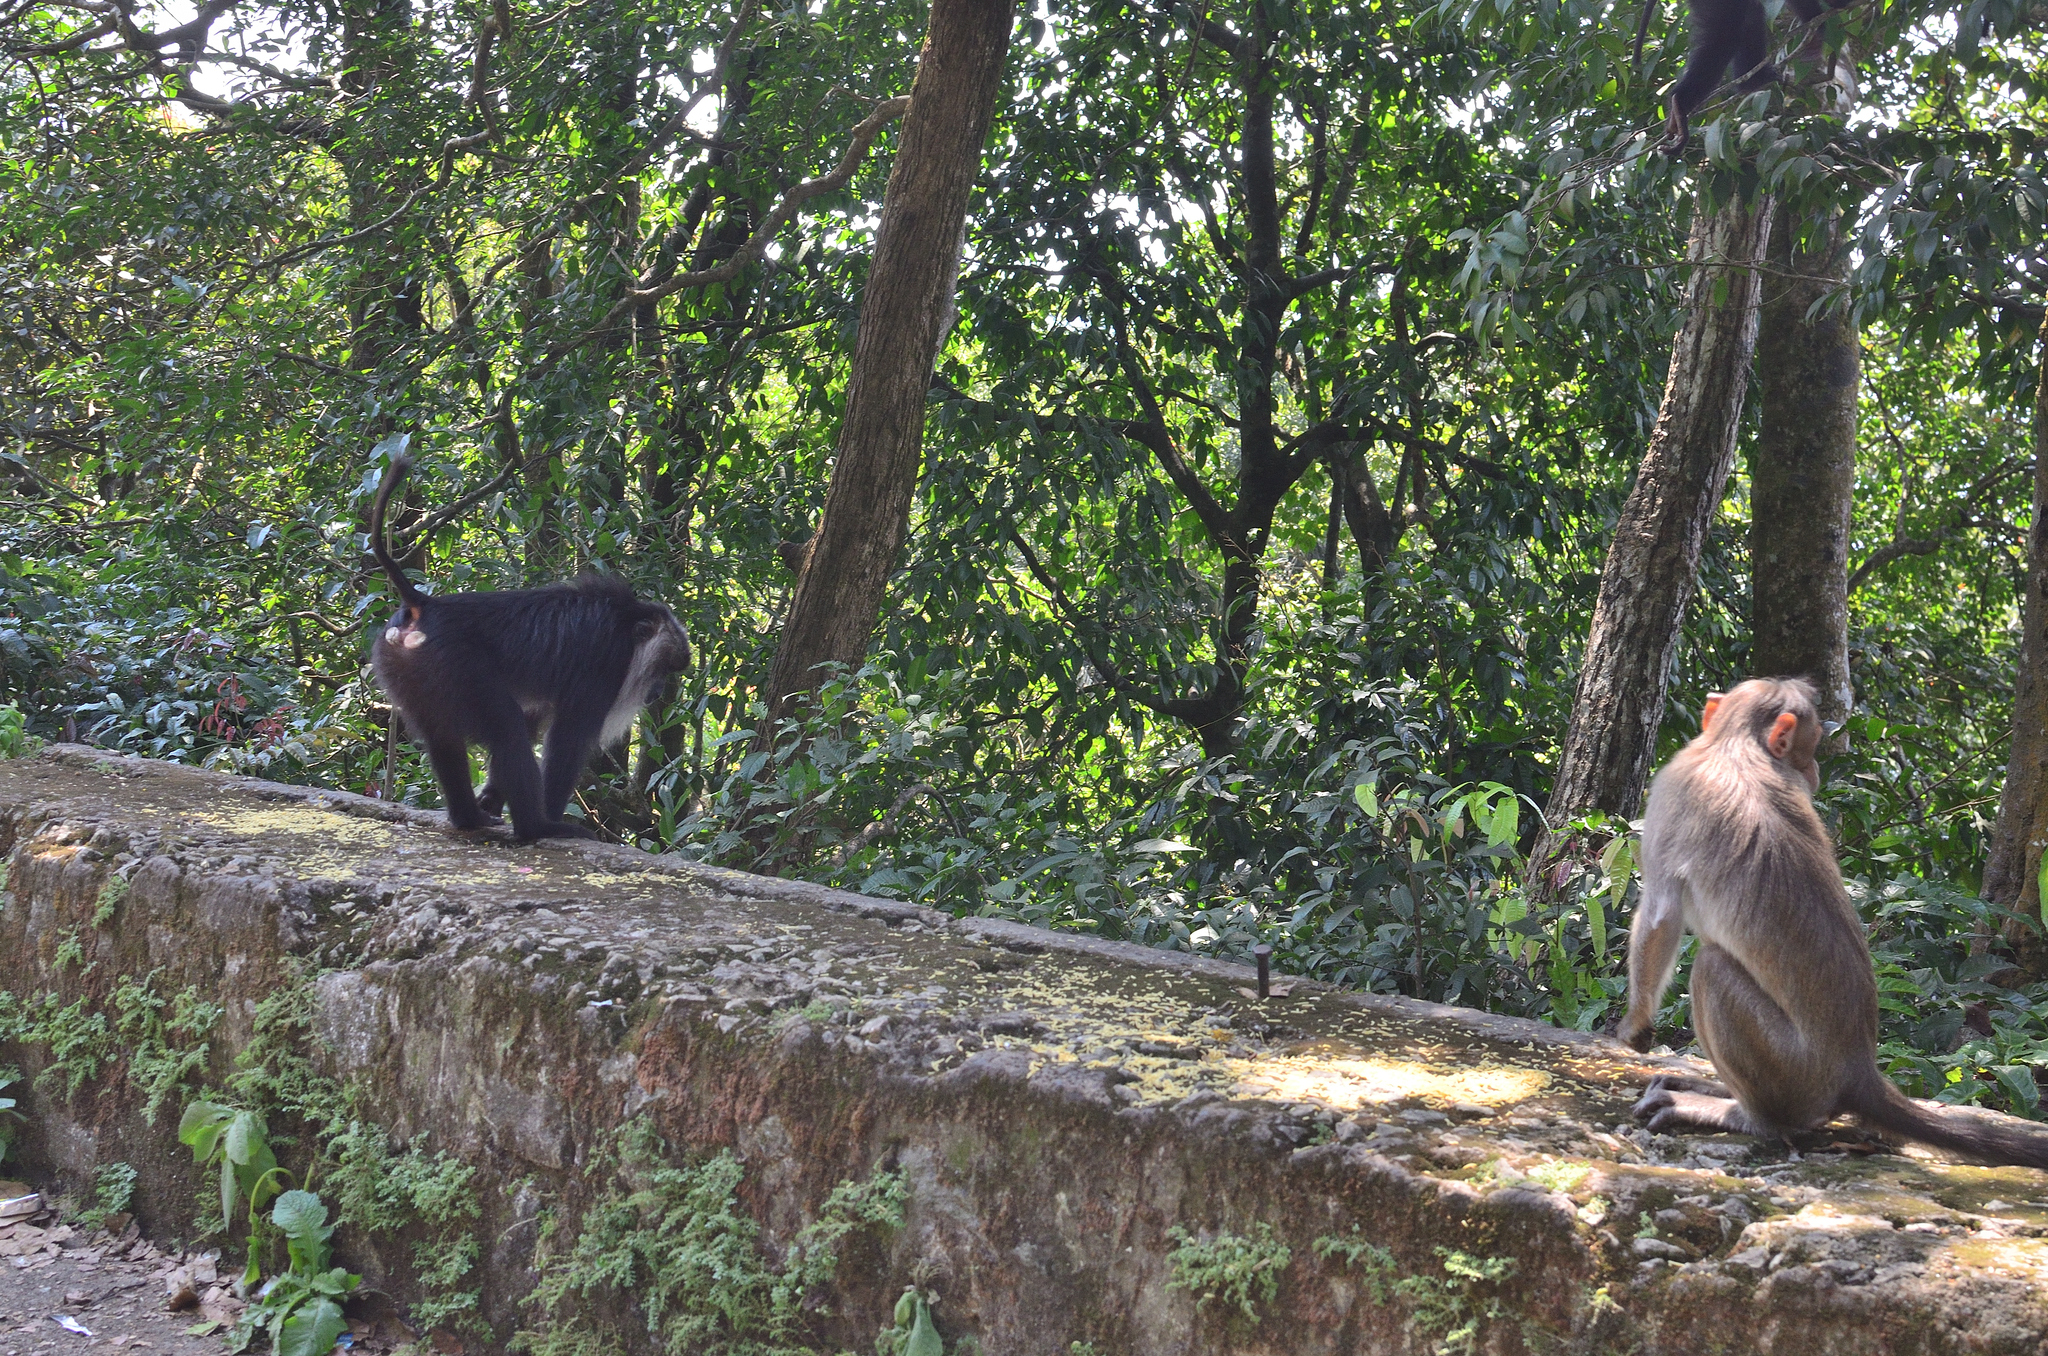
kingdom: Animalia
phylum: Chordata
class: Mammalia
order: Primates
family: Cercopithecidae
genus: Macaca
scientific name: Macaca silenus
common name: Lion-tailed macaque
